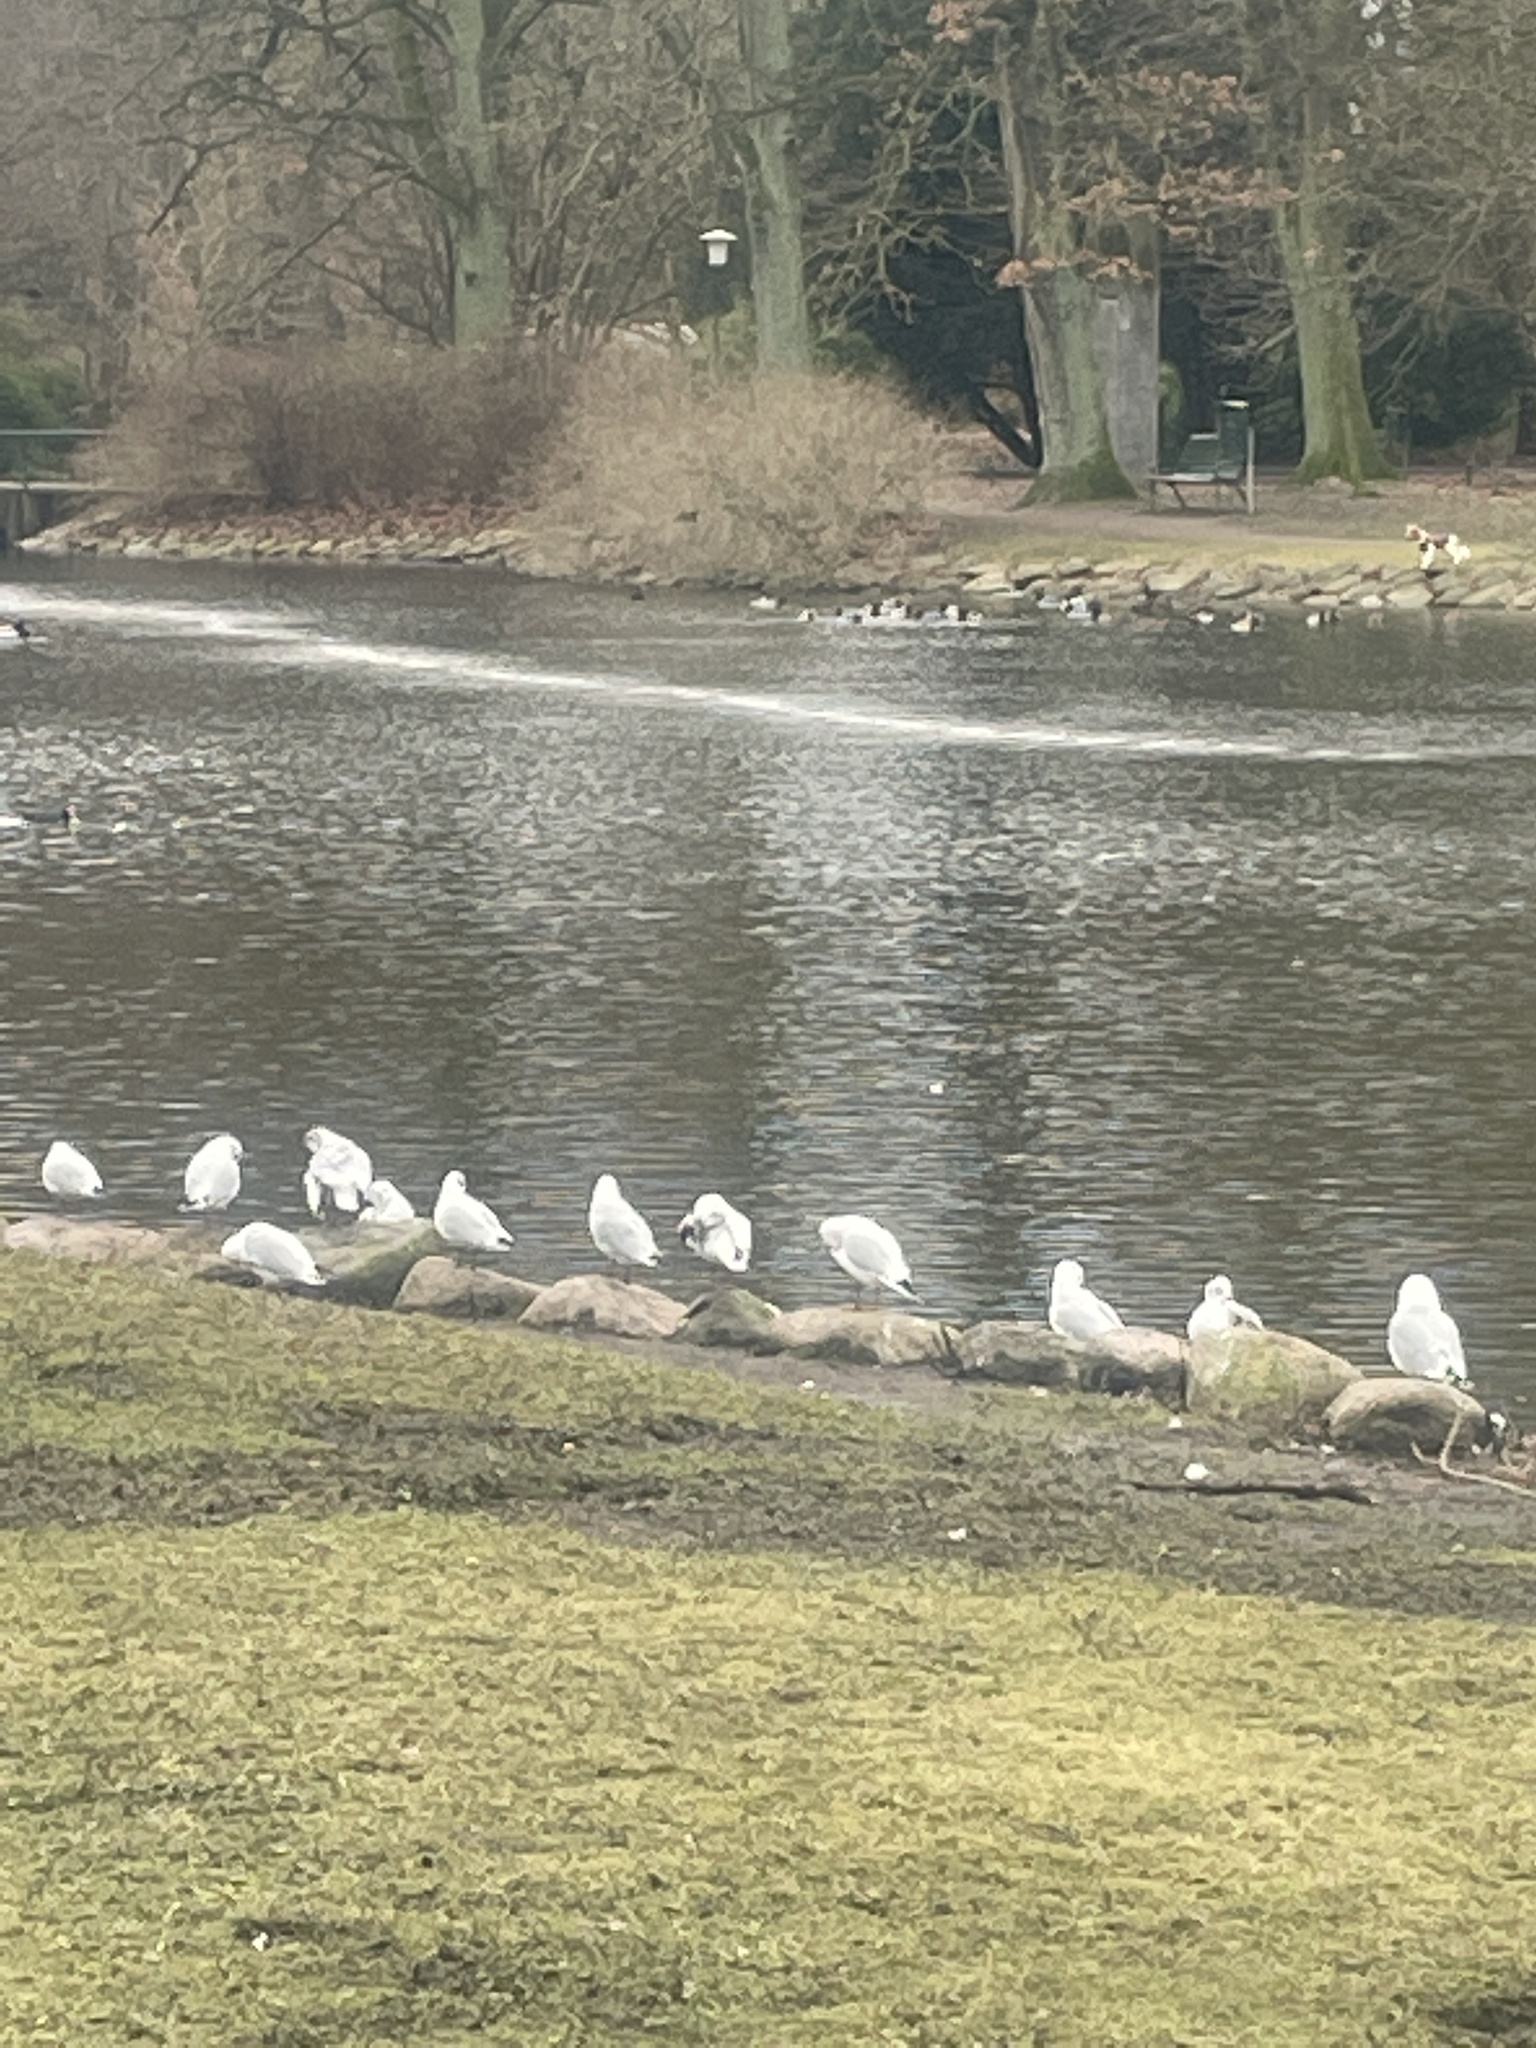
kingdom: Animalia
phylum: Chordata
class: Aves
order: Charadriiformes
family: Laridae
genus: Chroicocephalus
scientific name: Chroicocephalus ridibundus
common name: Black-headed gull
